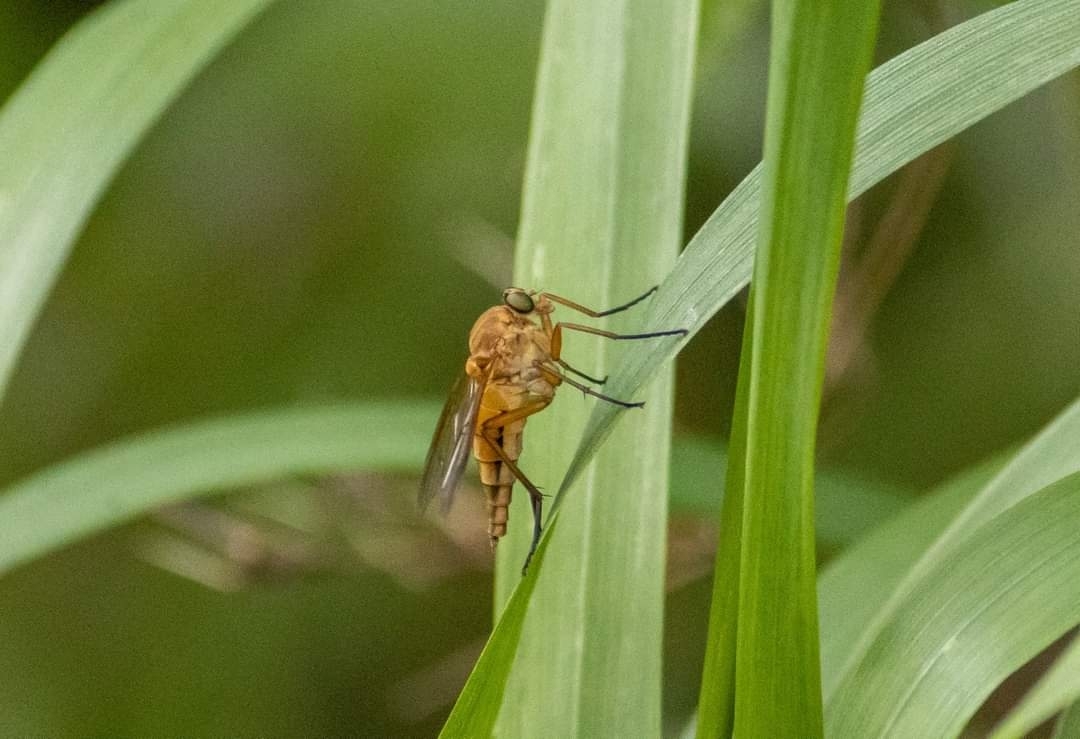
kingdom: Animalia
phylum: Arthropoda
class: Insecta
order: Diptera
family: Rhagionidae
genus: Rhagio
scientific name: Rhagio tringaria
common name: Marsh snipefly
